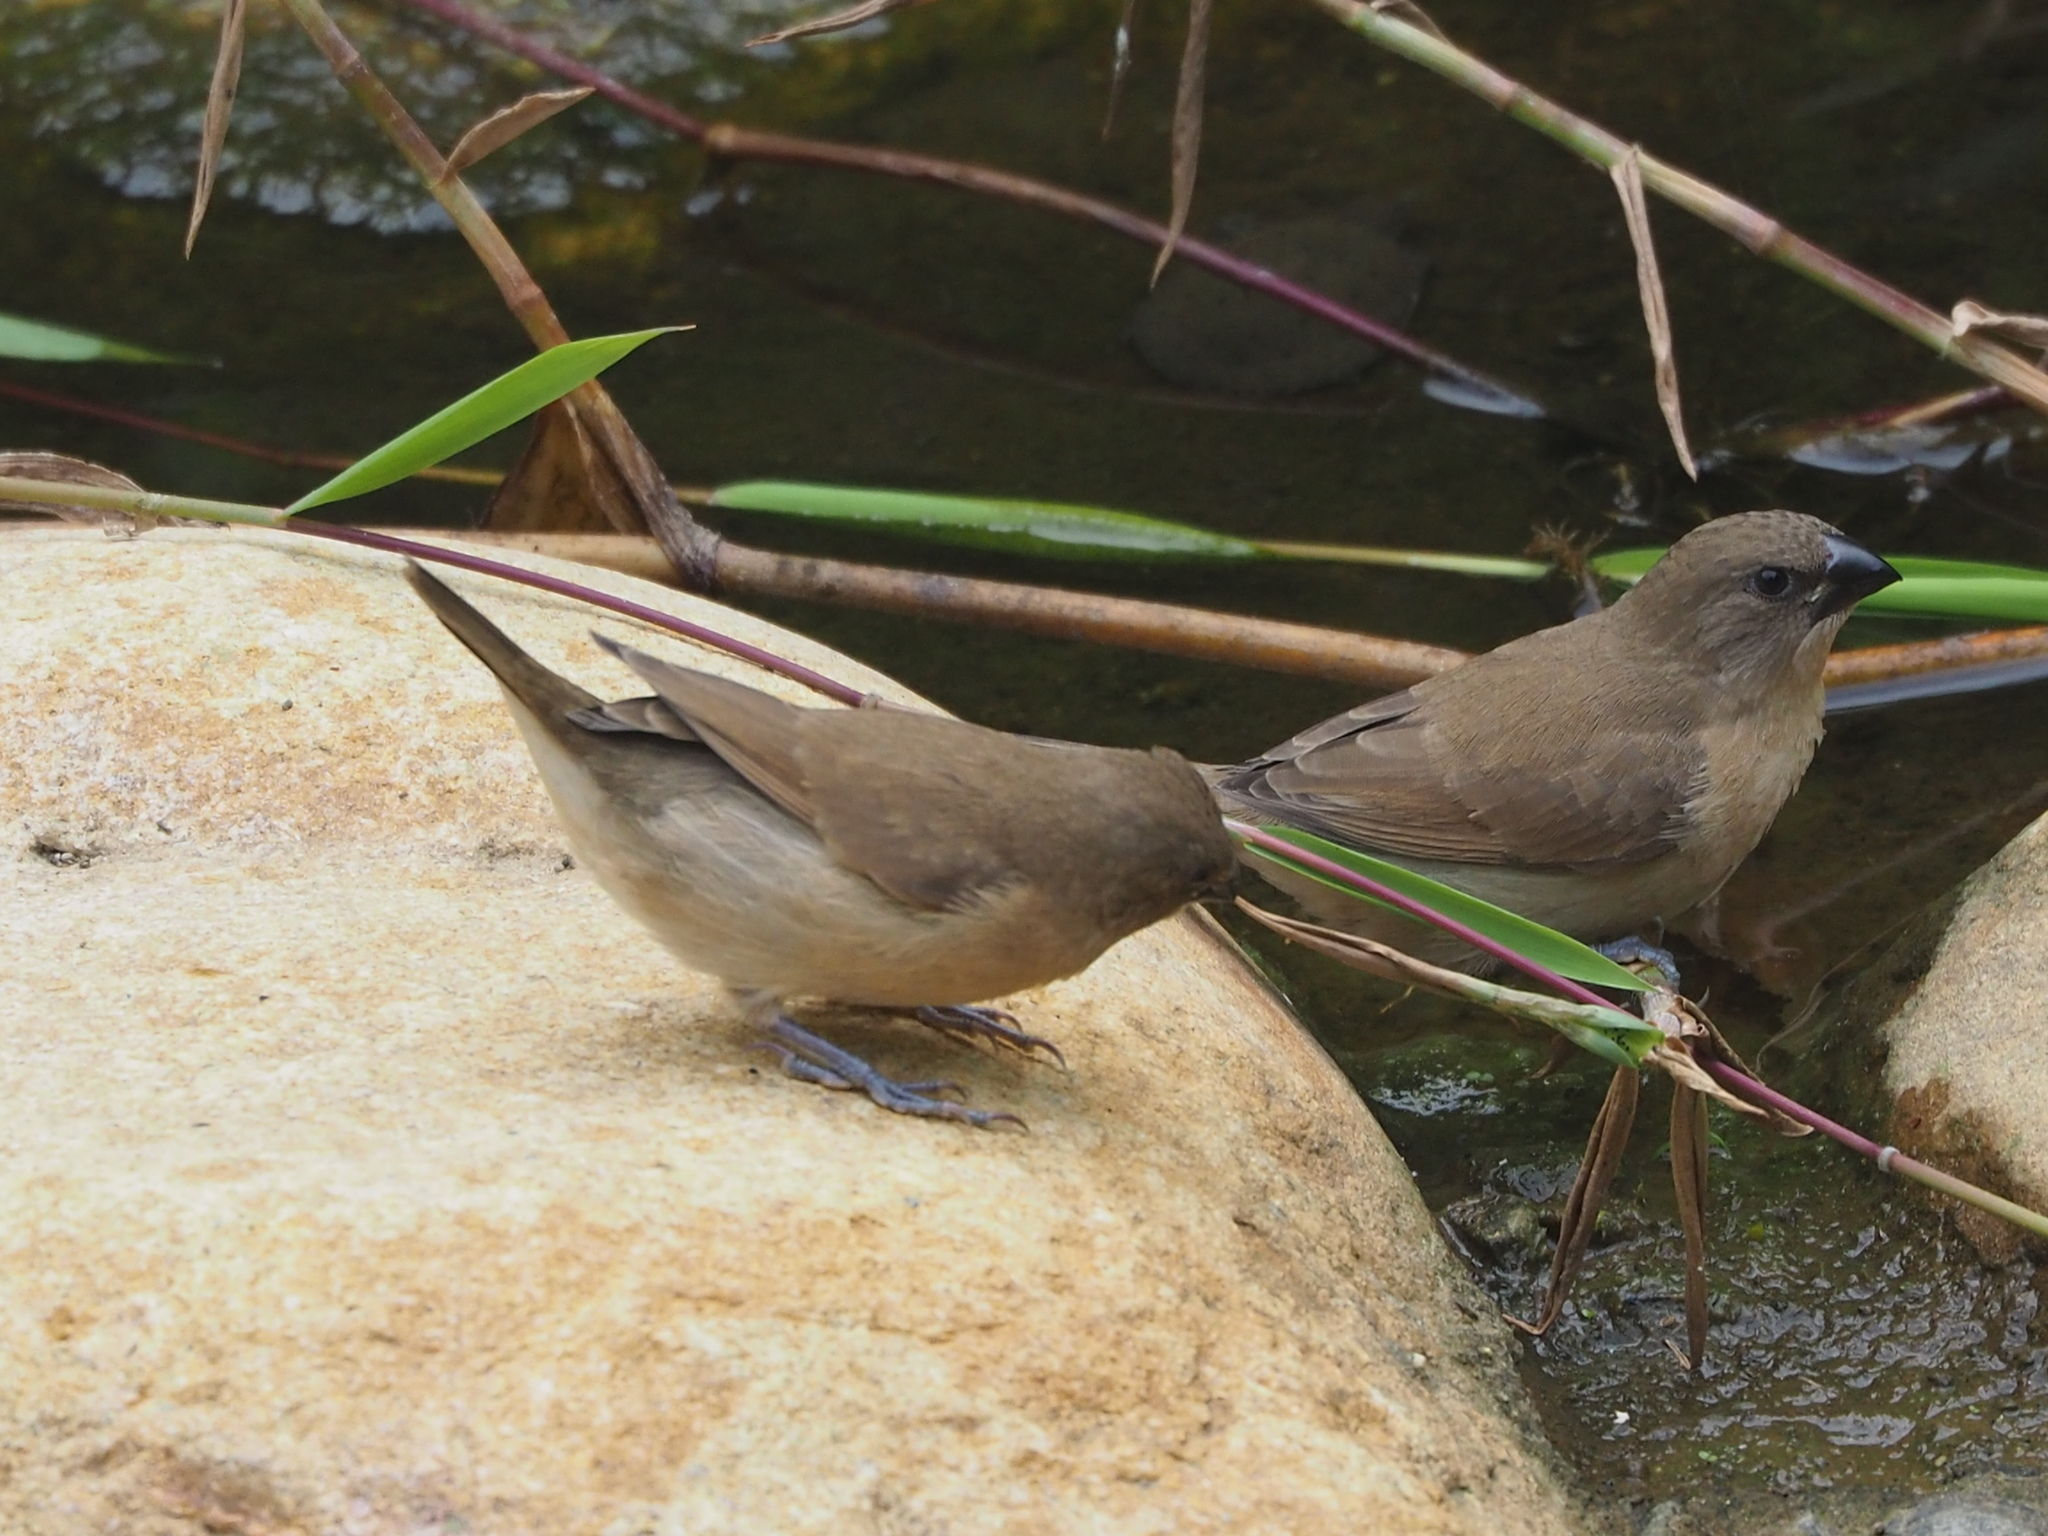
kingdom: Animalia
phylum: Chordata
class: Aves
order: Passeriformes
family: Estrildidae
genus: Lonchura
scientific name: Lonchura punctulata
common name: Scaly-breasted munia
